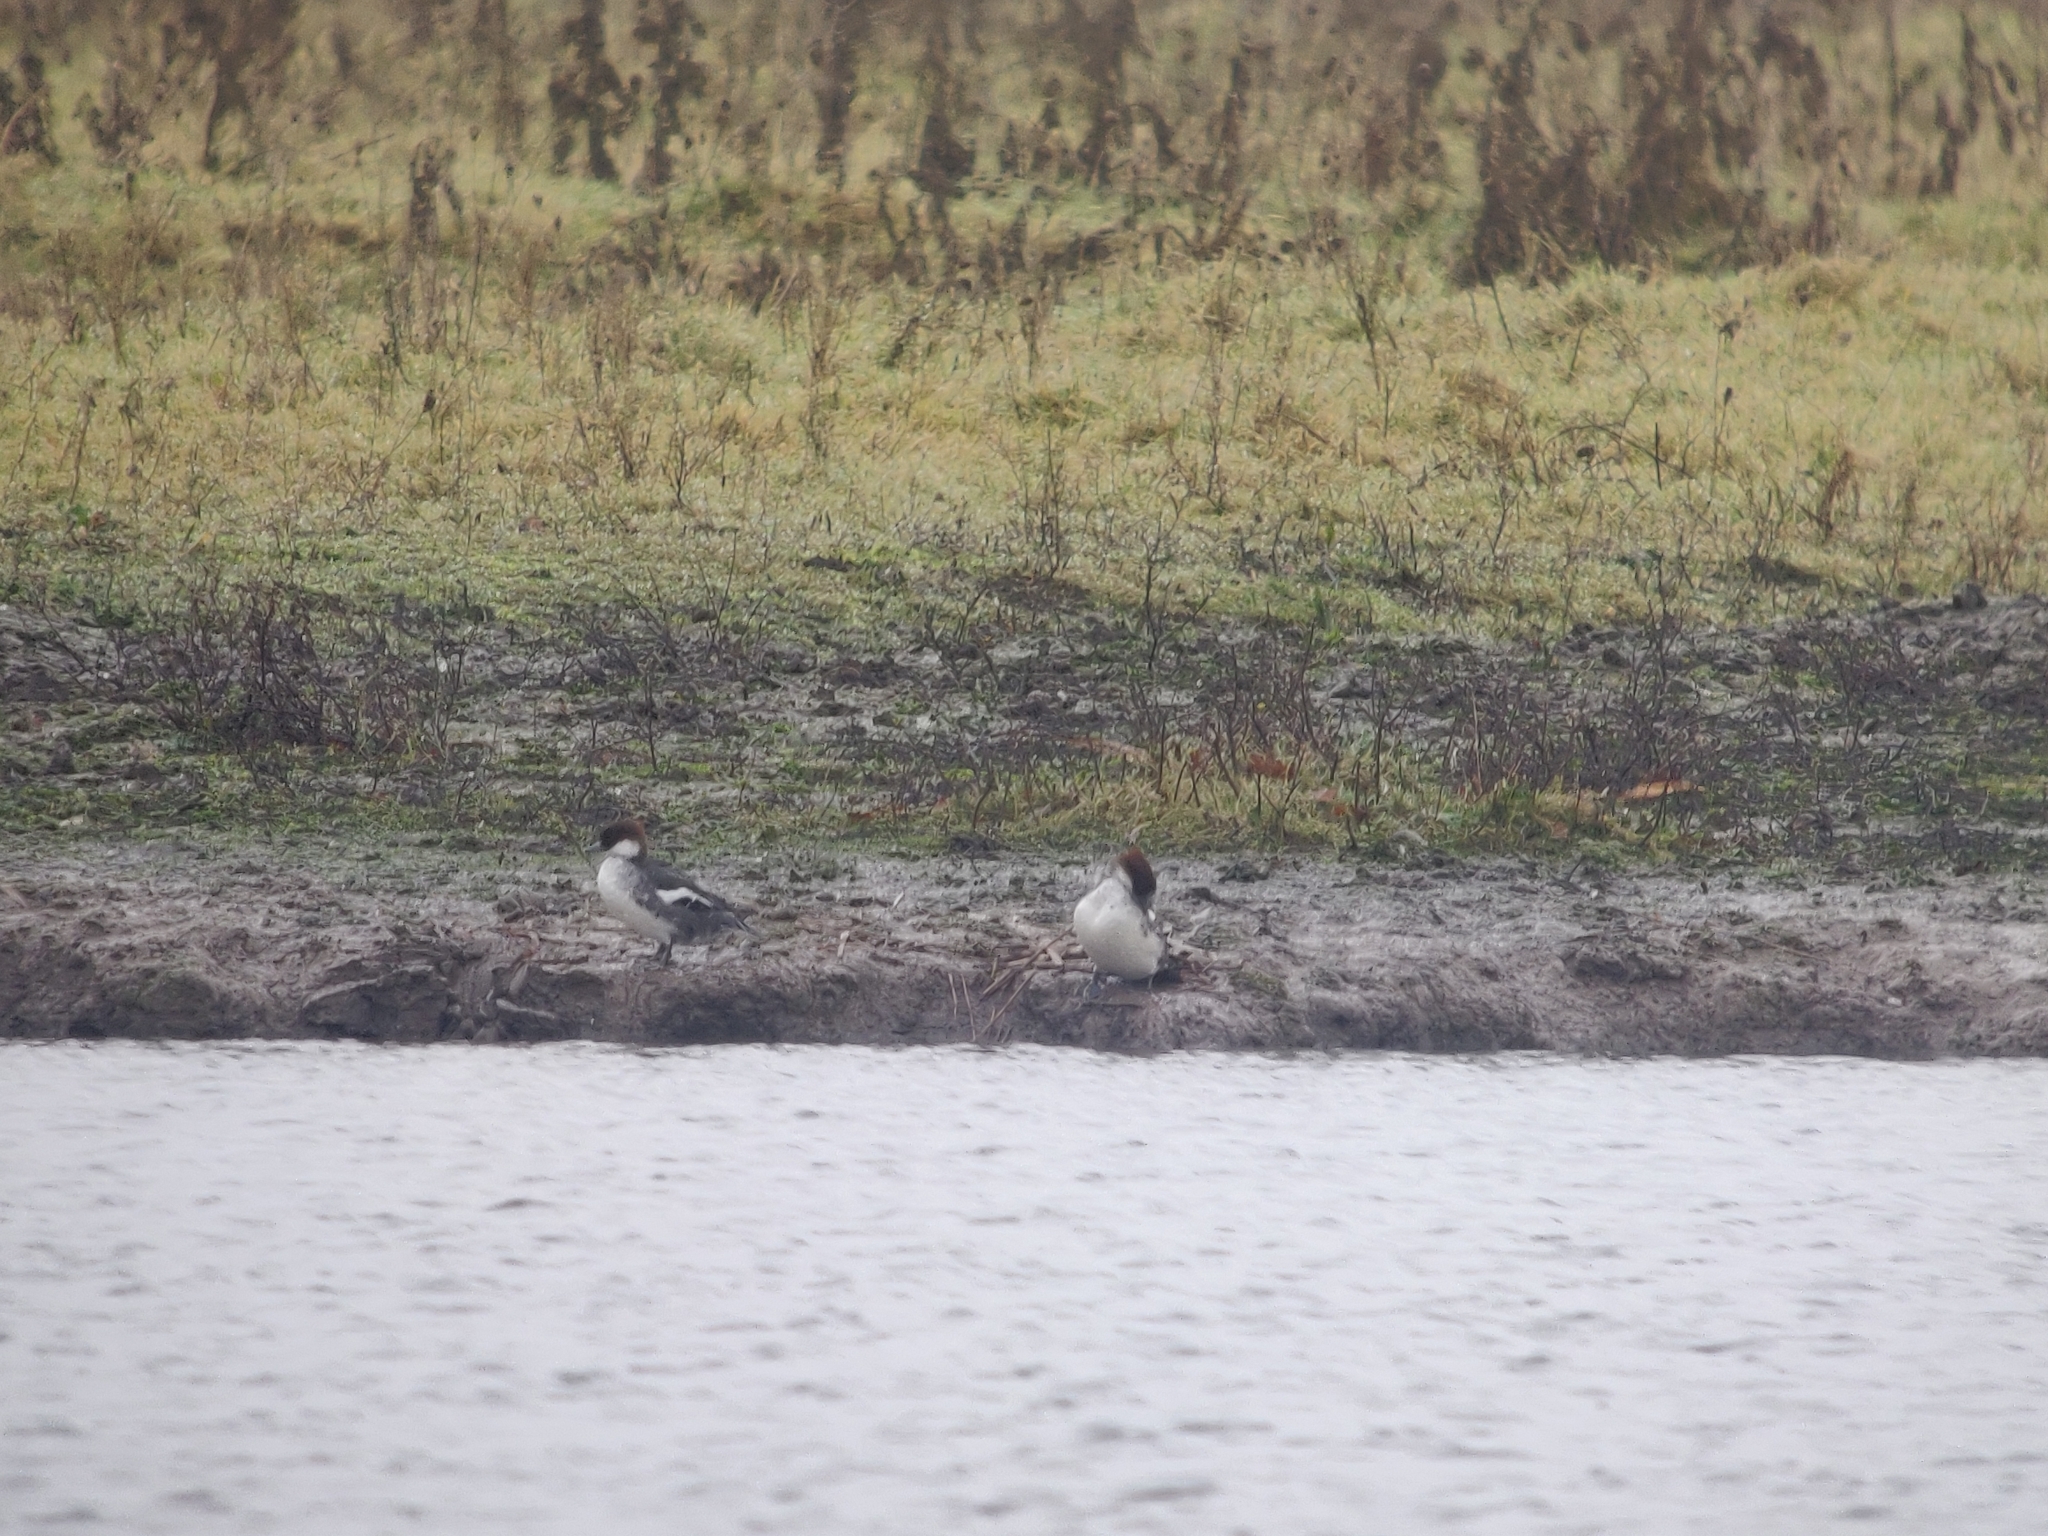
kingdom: Animalia
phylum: Chordata
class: Aves
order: Anseriformes
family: Anatidae
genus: Mergellus
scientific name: Mergellus albellus
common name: Smew
